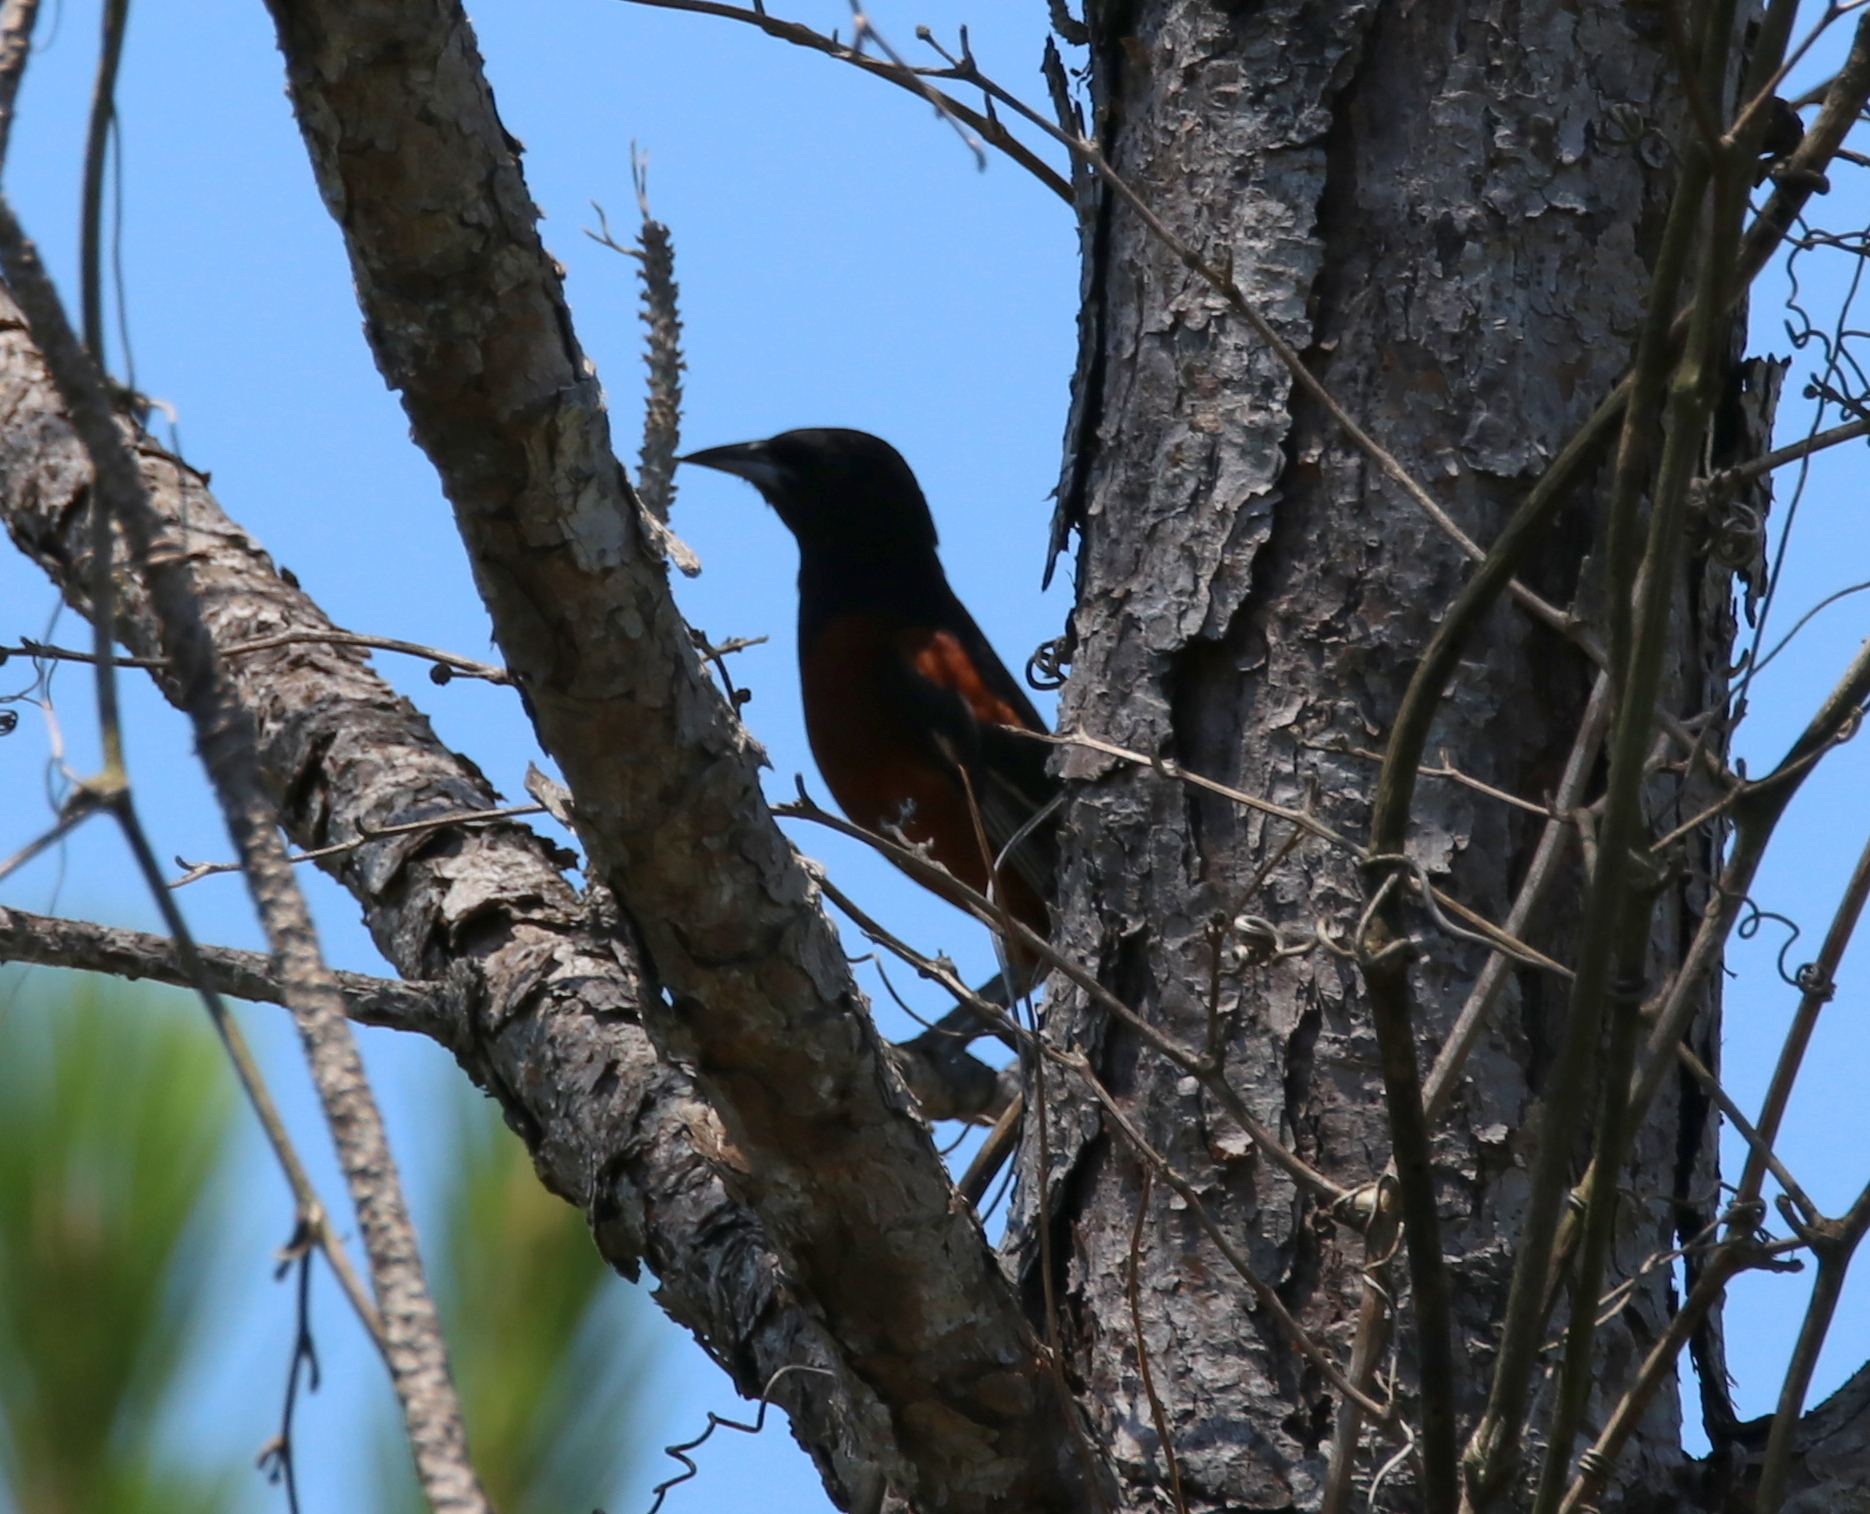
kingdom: Animalia
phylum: Chordata
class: Aves
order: Passeriformes
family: Icteridae
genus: Icterus
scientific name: Icterus spurius
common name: Orchard oriole
